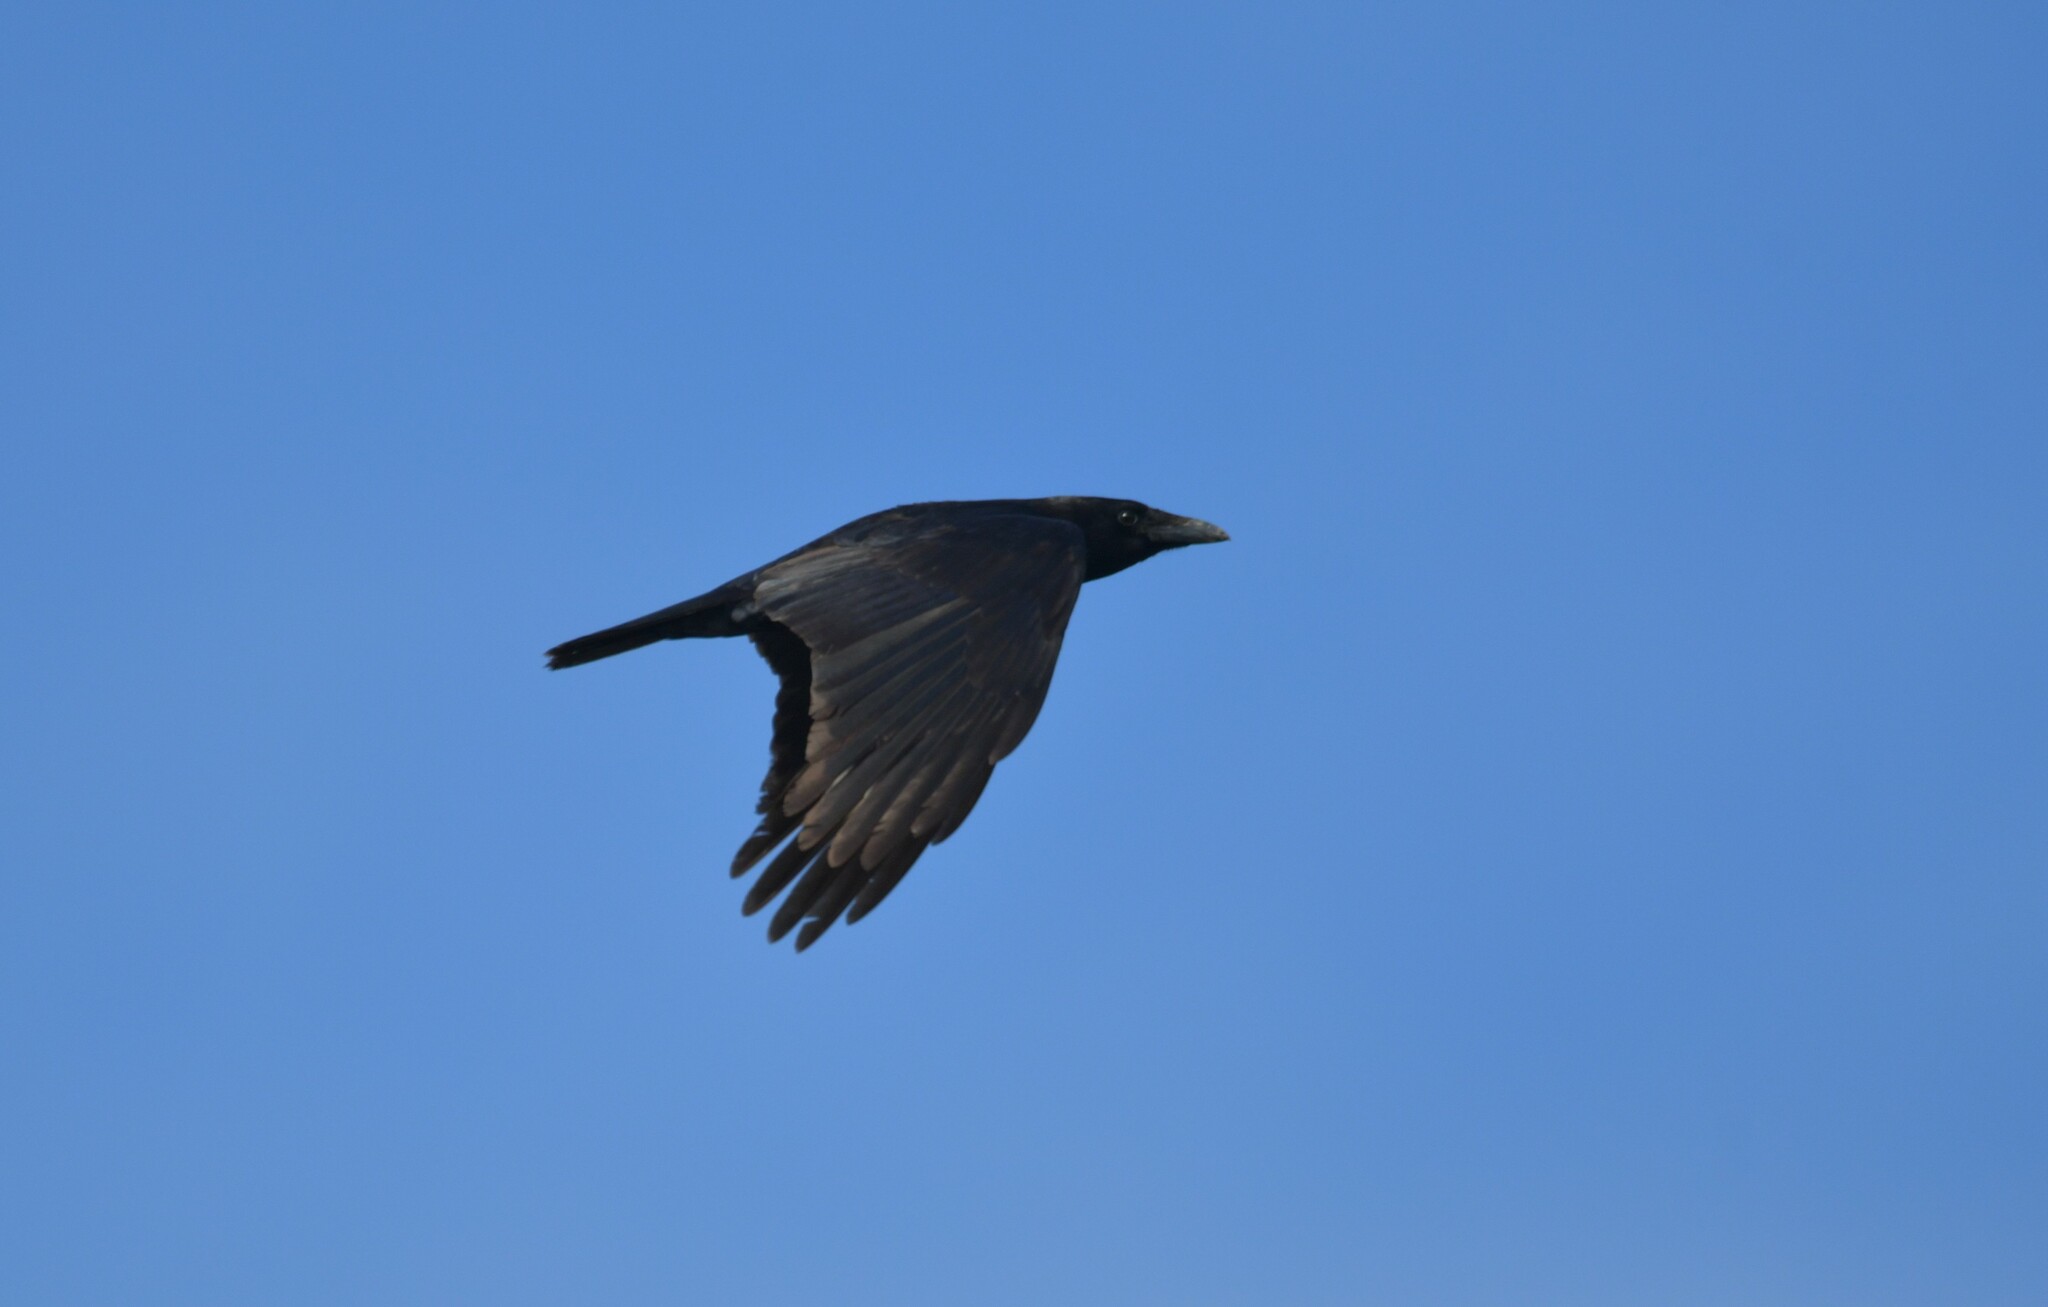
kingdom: Animalia
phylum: Chordata
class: Aves
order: Passeriformes
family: Corvidae
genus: Corvus
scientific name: Corvus corone
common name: Carrion crow
